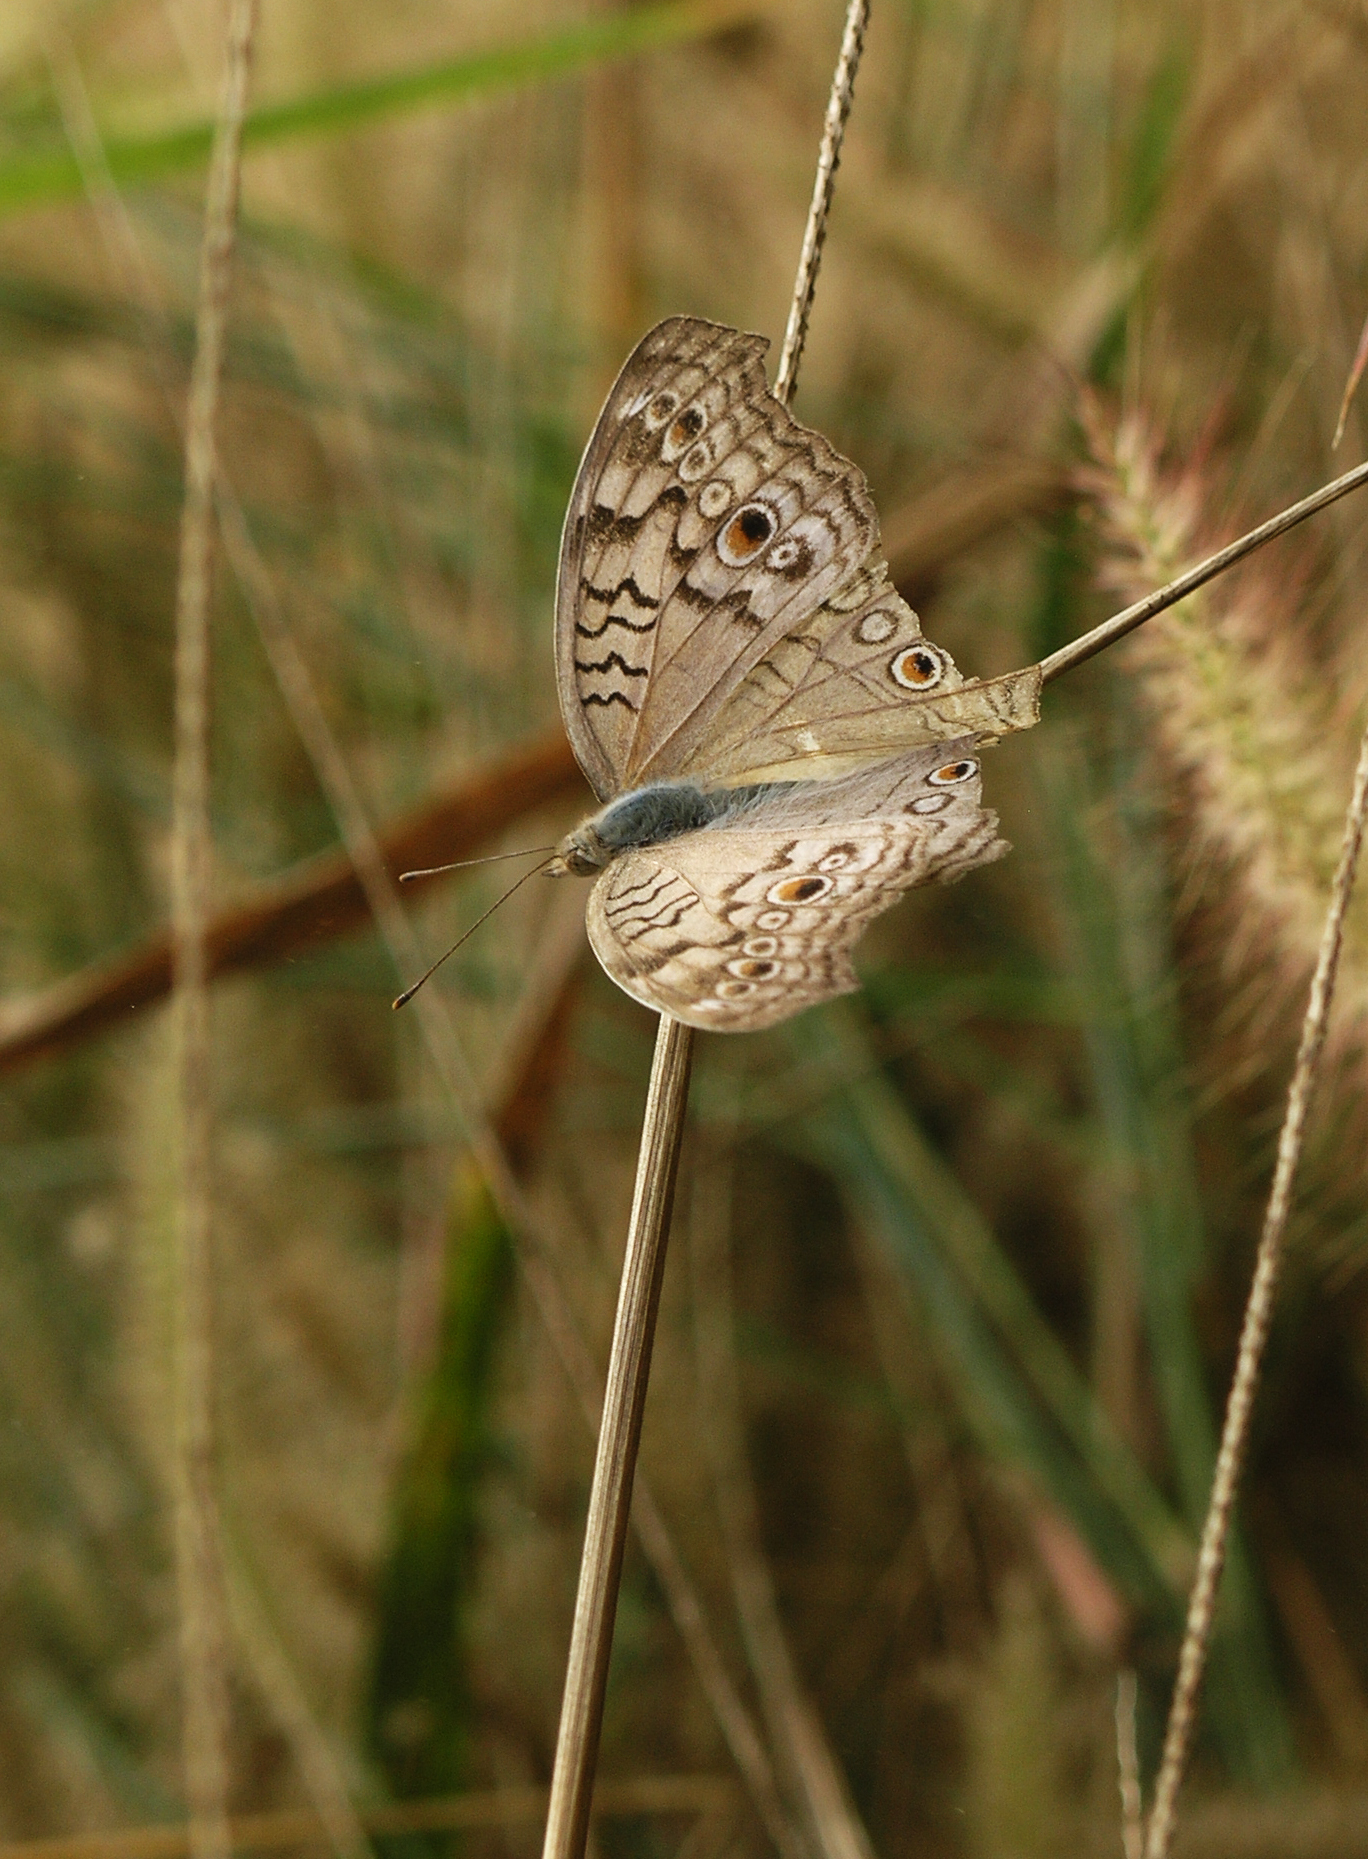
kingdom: Animalia
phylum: Arthropoda
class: Insecta
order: Lepidoptera
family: Nymphalidae
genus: Junonia
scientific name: Junonia atlites
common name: Grey pansy
